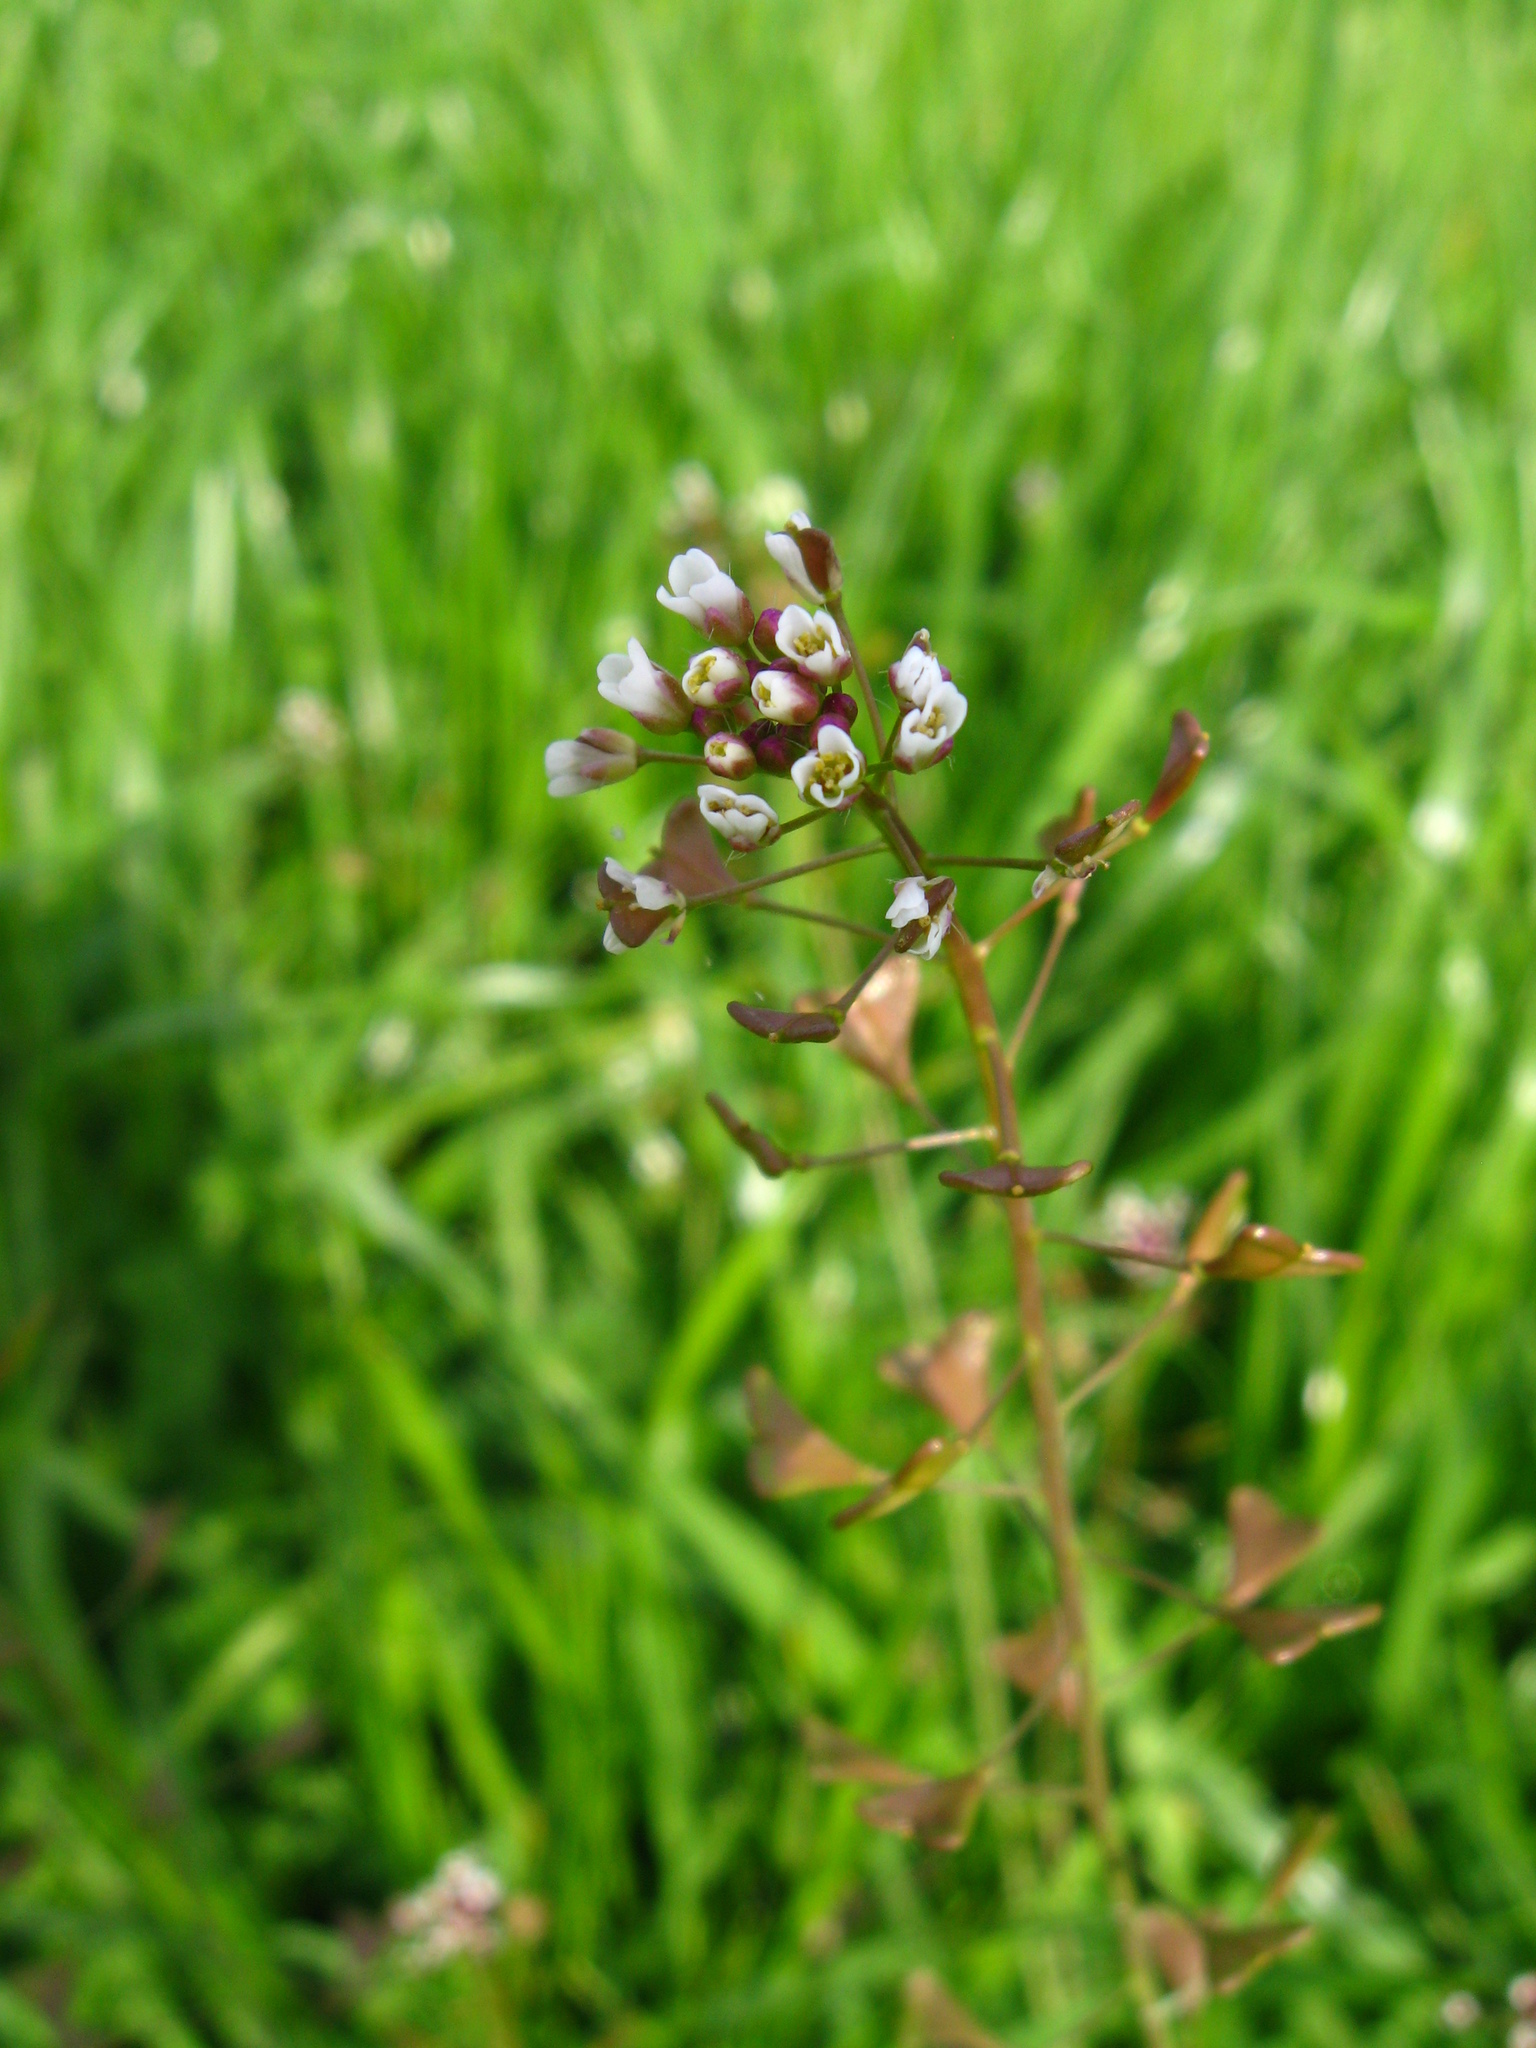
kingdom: Plantae
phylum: Tracheophyta
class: Magnoliopsida
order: Brassicales
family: Brassicaceae
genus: Capsella
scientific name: Capsella bursa-pastoris
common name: Shepherd's purse
